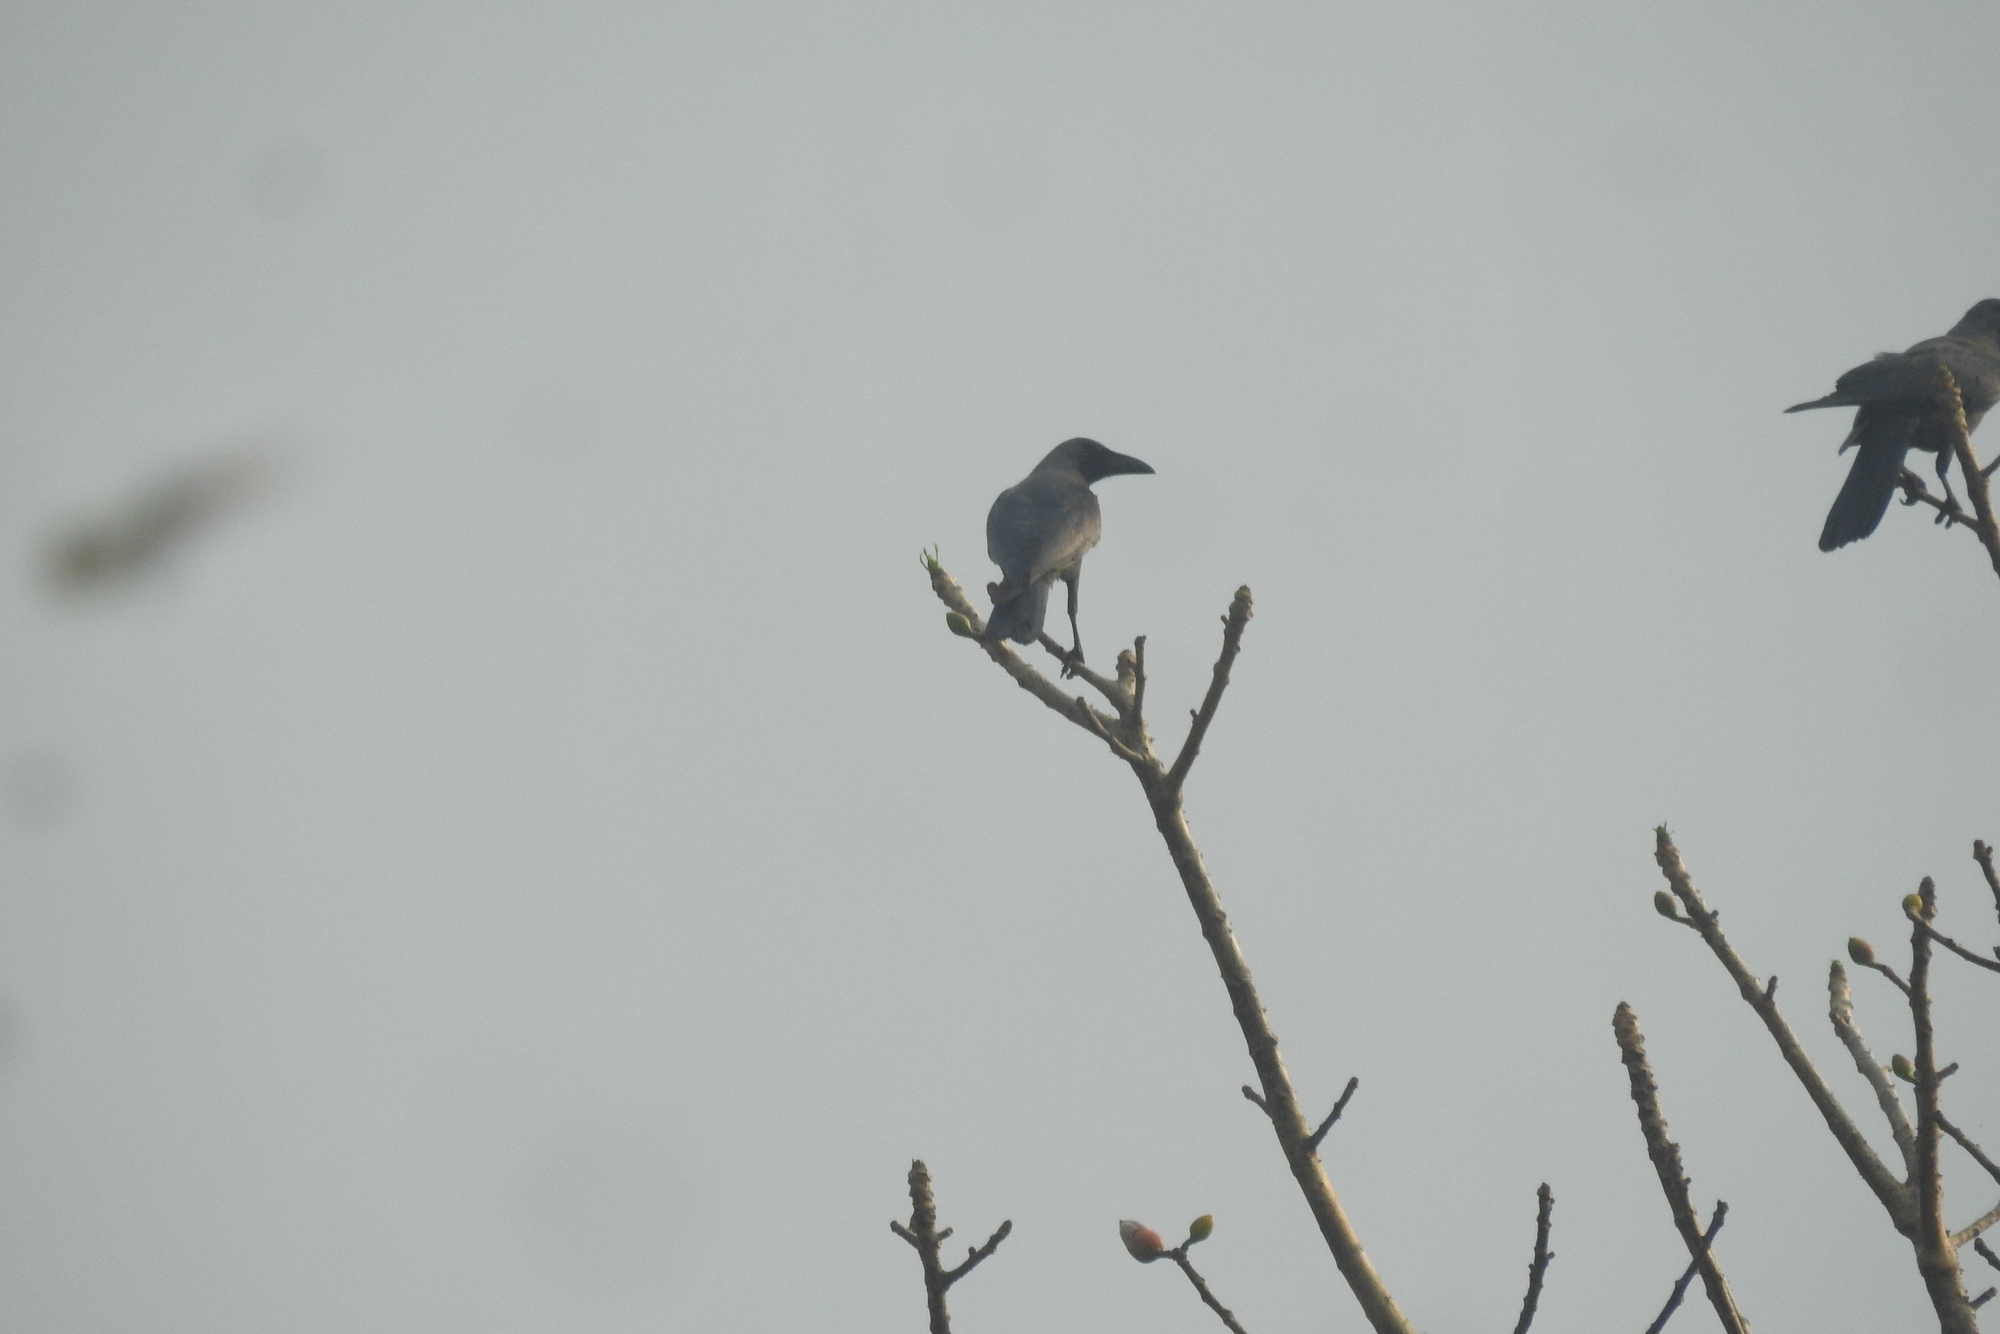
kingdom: Animalia
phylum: Chordata
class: Aves
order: Passeriformes
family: Corvidae
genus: Corvus
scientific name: Corvus splendens
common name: House crow
